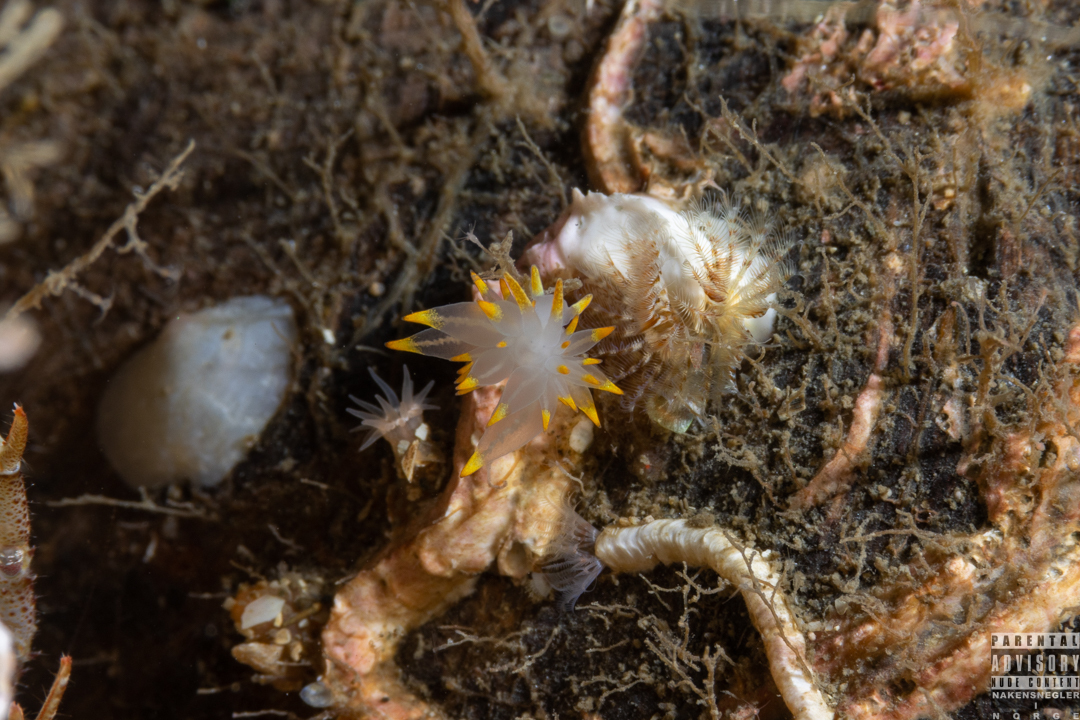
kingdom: Animalia
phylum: Mollusca
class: Gastropoda
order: Nudibranchia
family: Eubranchidae
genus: Amphorina
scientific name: Amphorina farrani
